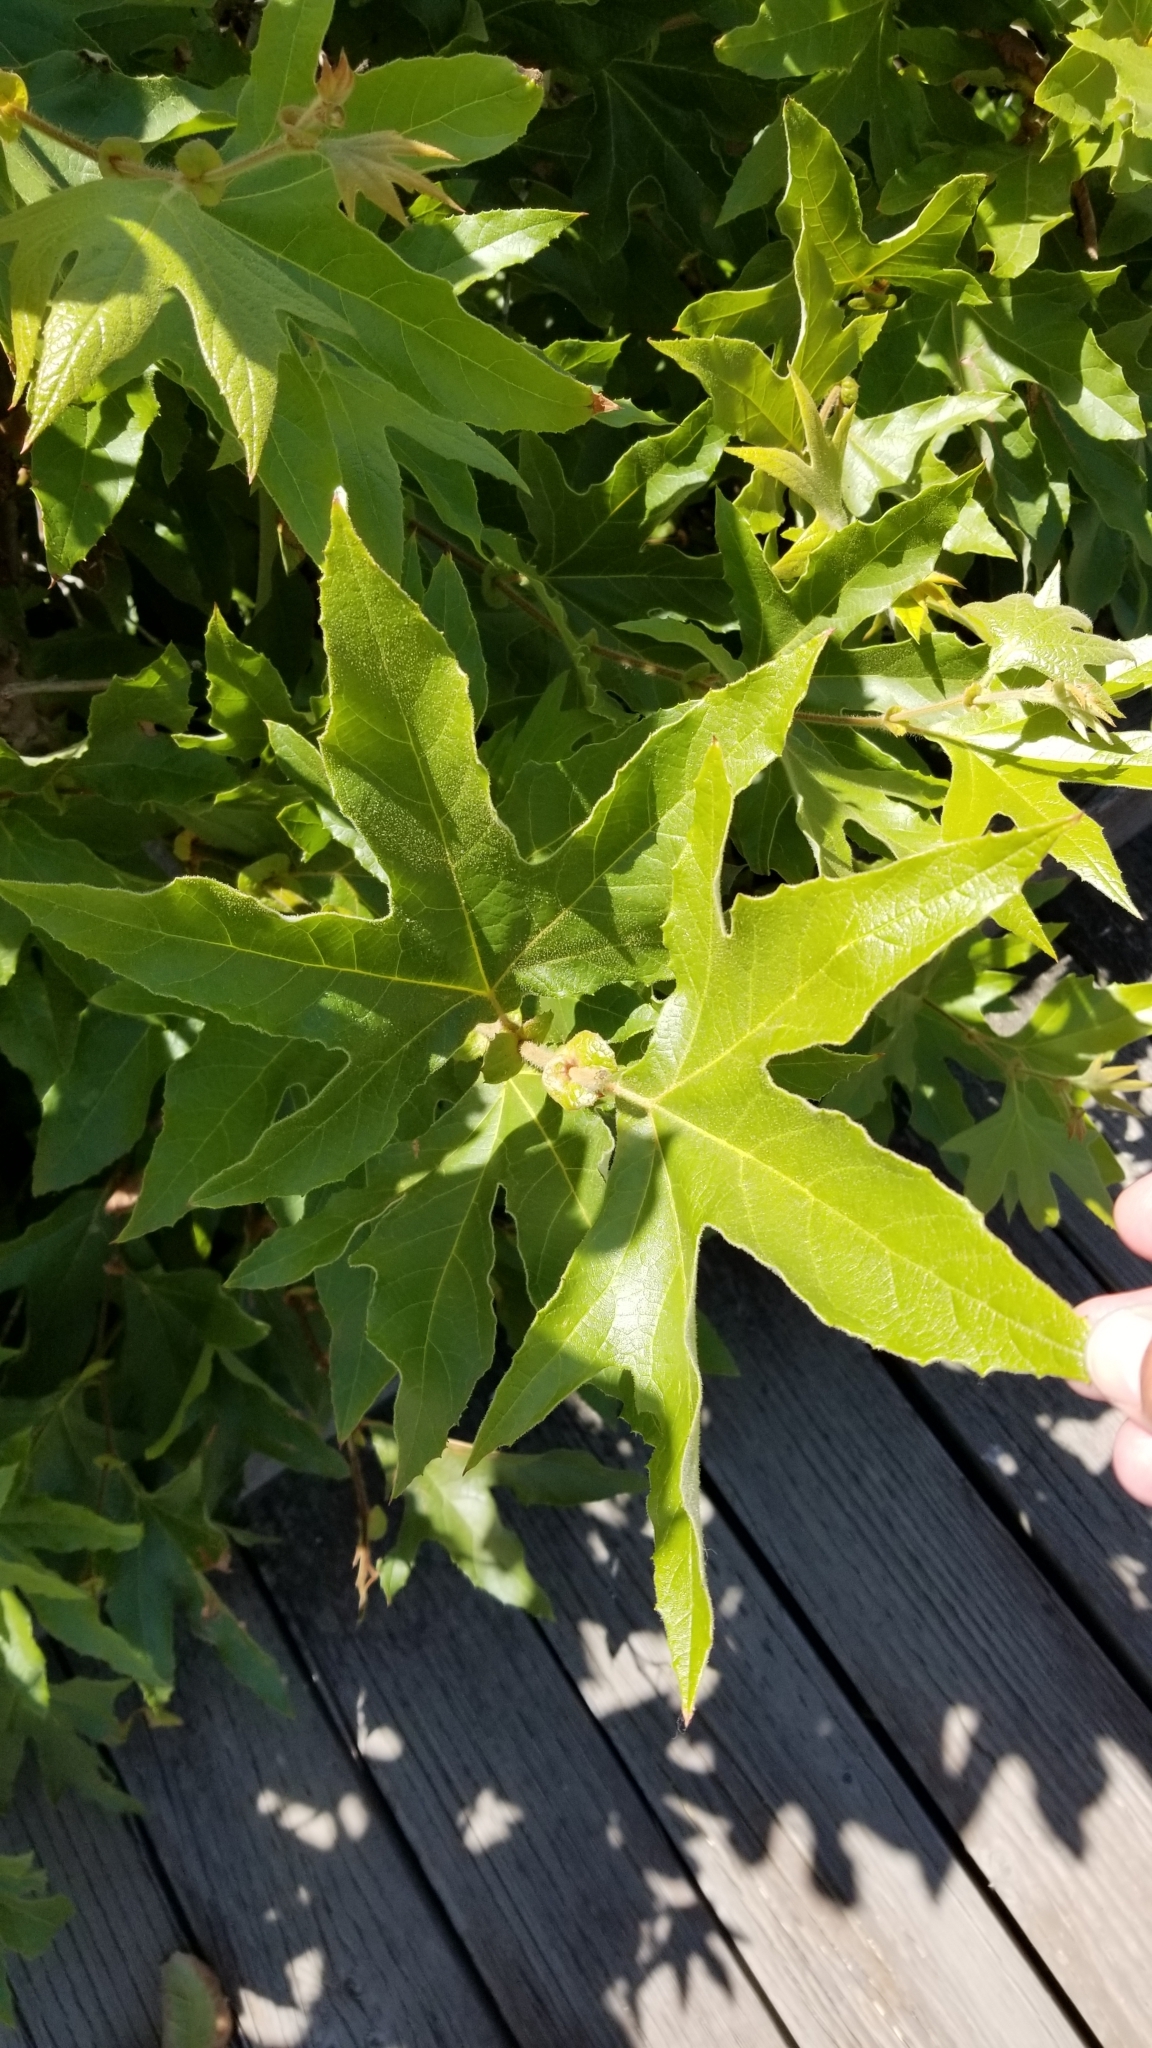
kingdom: Plantae
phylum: Tracheophyta
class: Magnoliopsida
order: Proteales
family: Platanaceae
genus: Platanus
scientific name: Platanus racemosa
